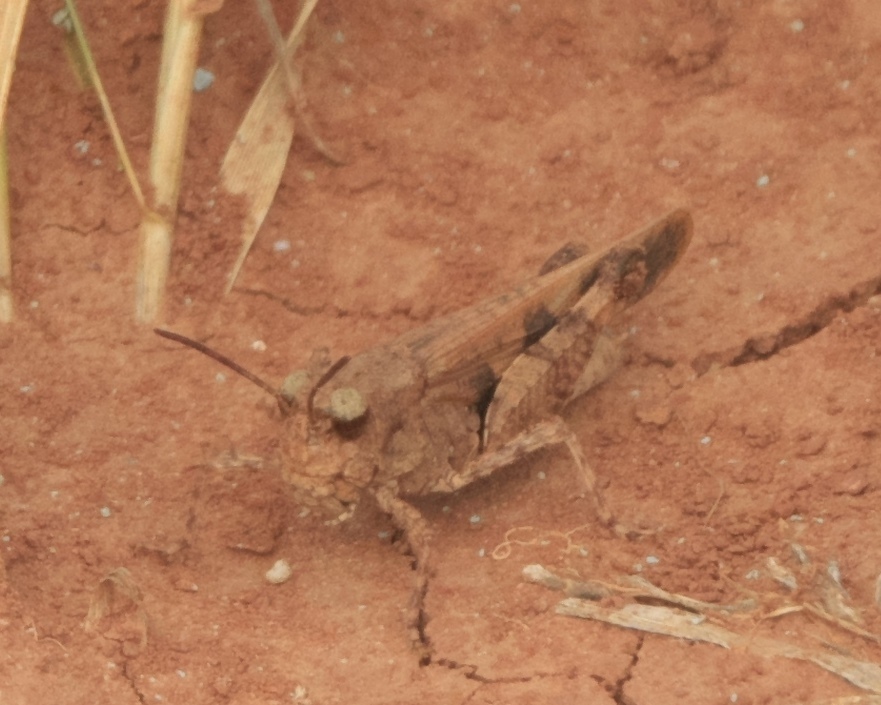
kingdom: Animalia
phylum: Arthropoda
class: Insecta
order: Orthoptera
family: Acrididae
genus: Nebulatettix
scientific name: Nebulatettix subgracilis
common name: Southwestern dusky grasshopper
